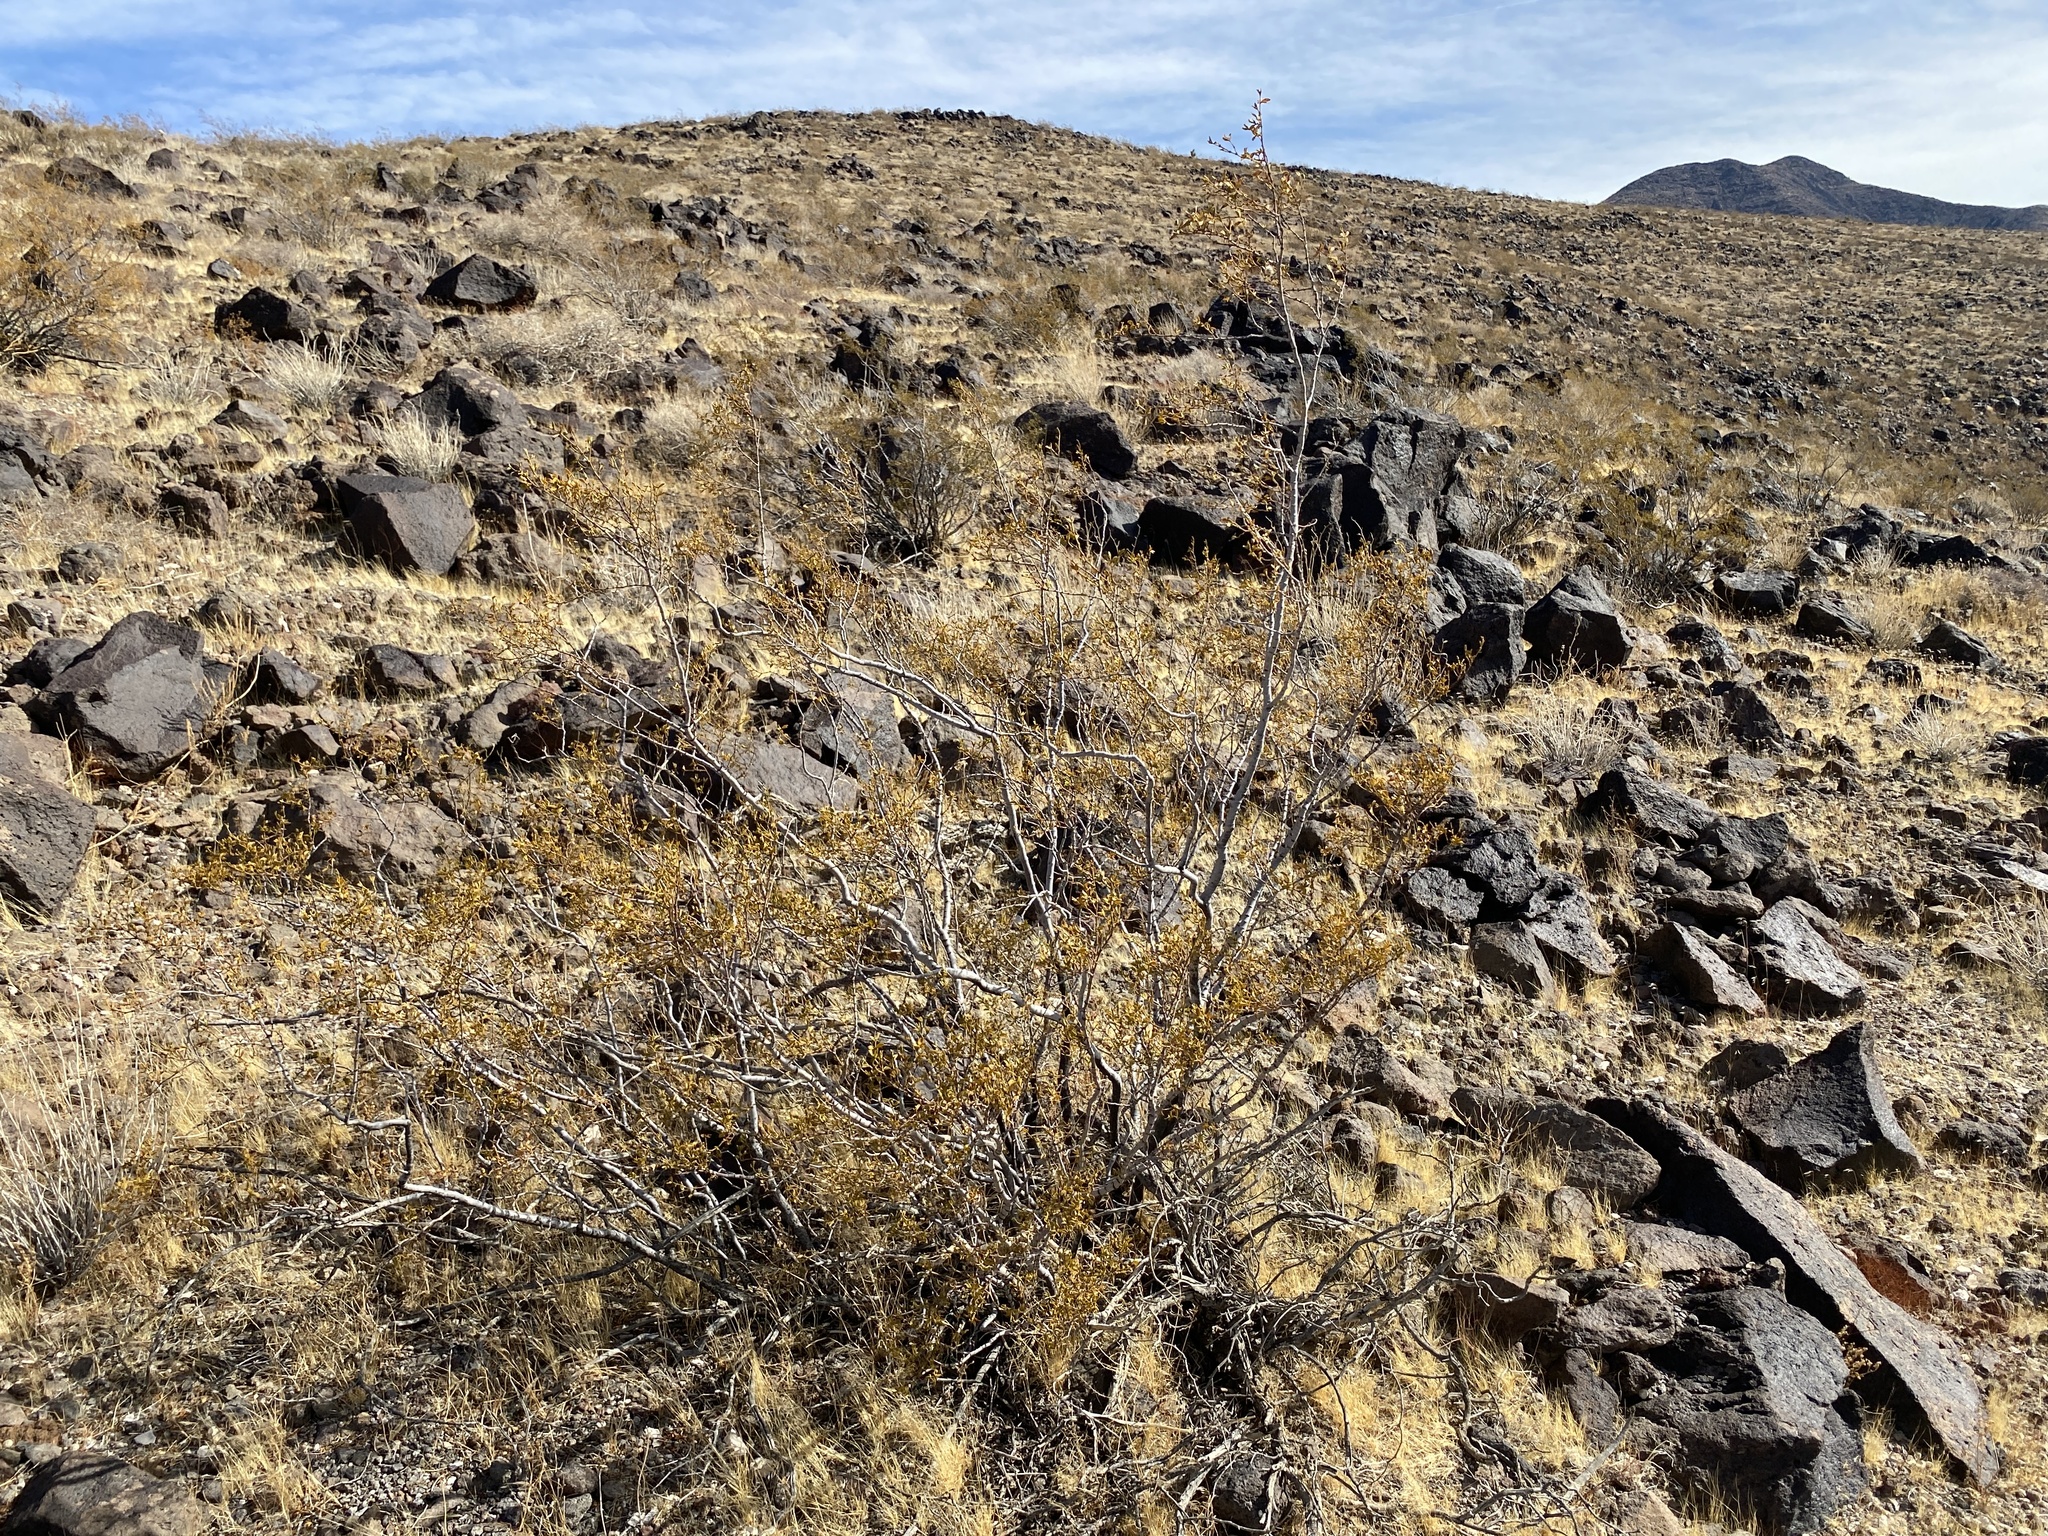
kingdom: Plantae
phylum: Tracheophyta
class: Magnoliopsida
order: Zygophyllales
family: Zygophyllaceae
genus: Larrea
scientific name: Larrea tridentata
